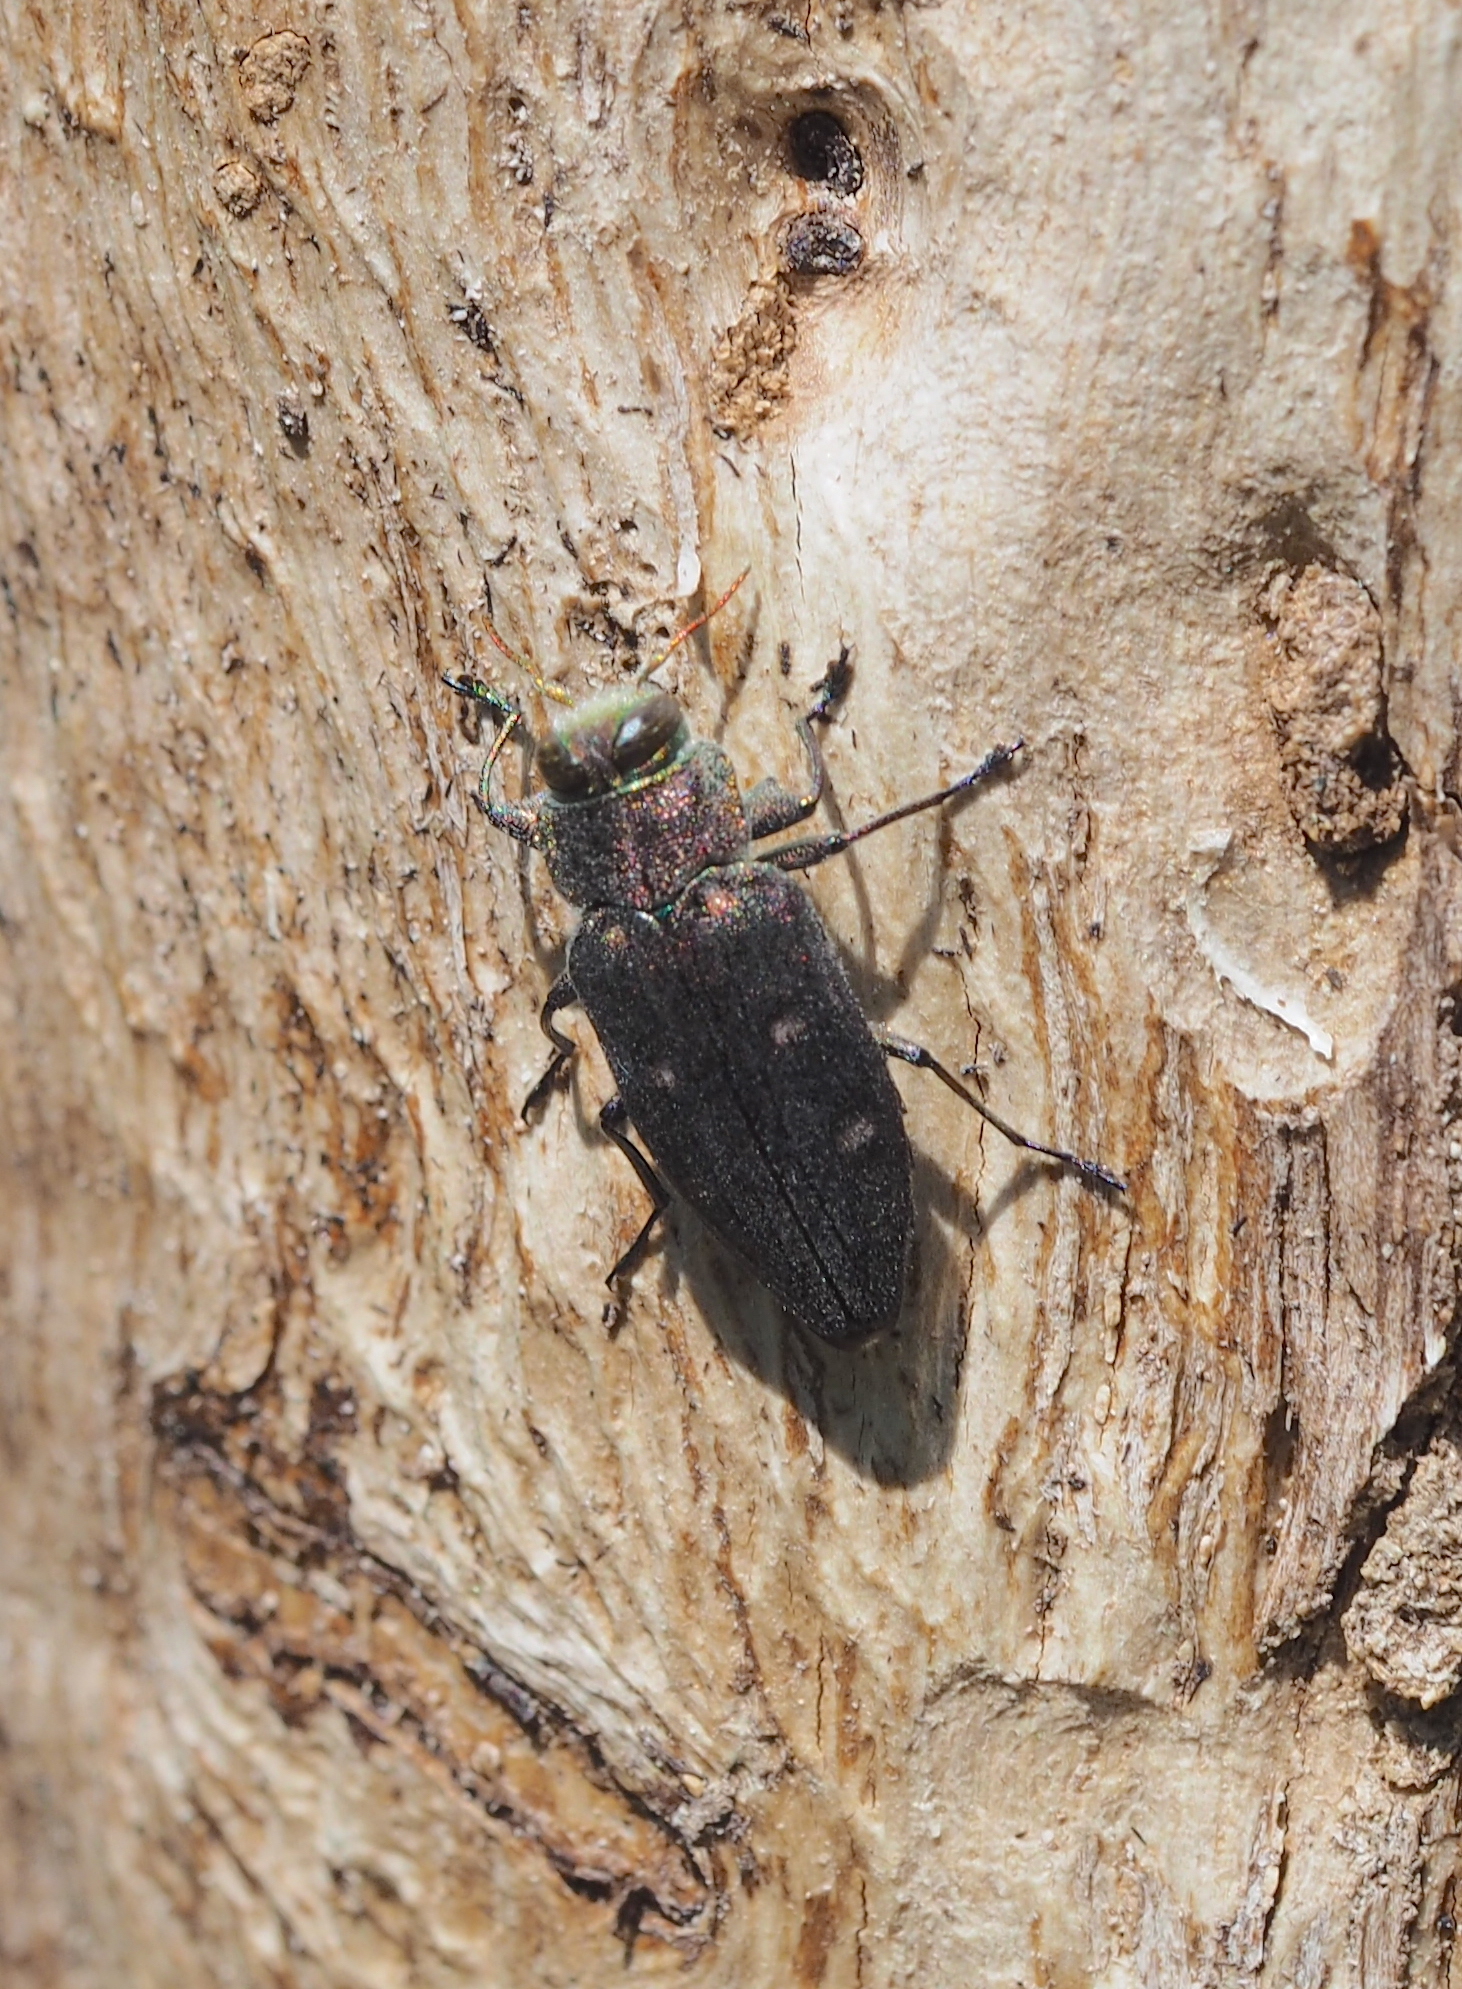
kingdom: Animalia
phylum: Arthropoda
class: Insecta
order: Coleoptera
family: Buprestidae
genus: Chrysobothris
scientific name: Chrysobothris affinis
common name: Beetle
